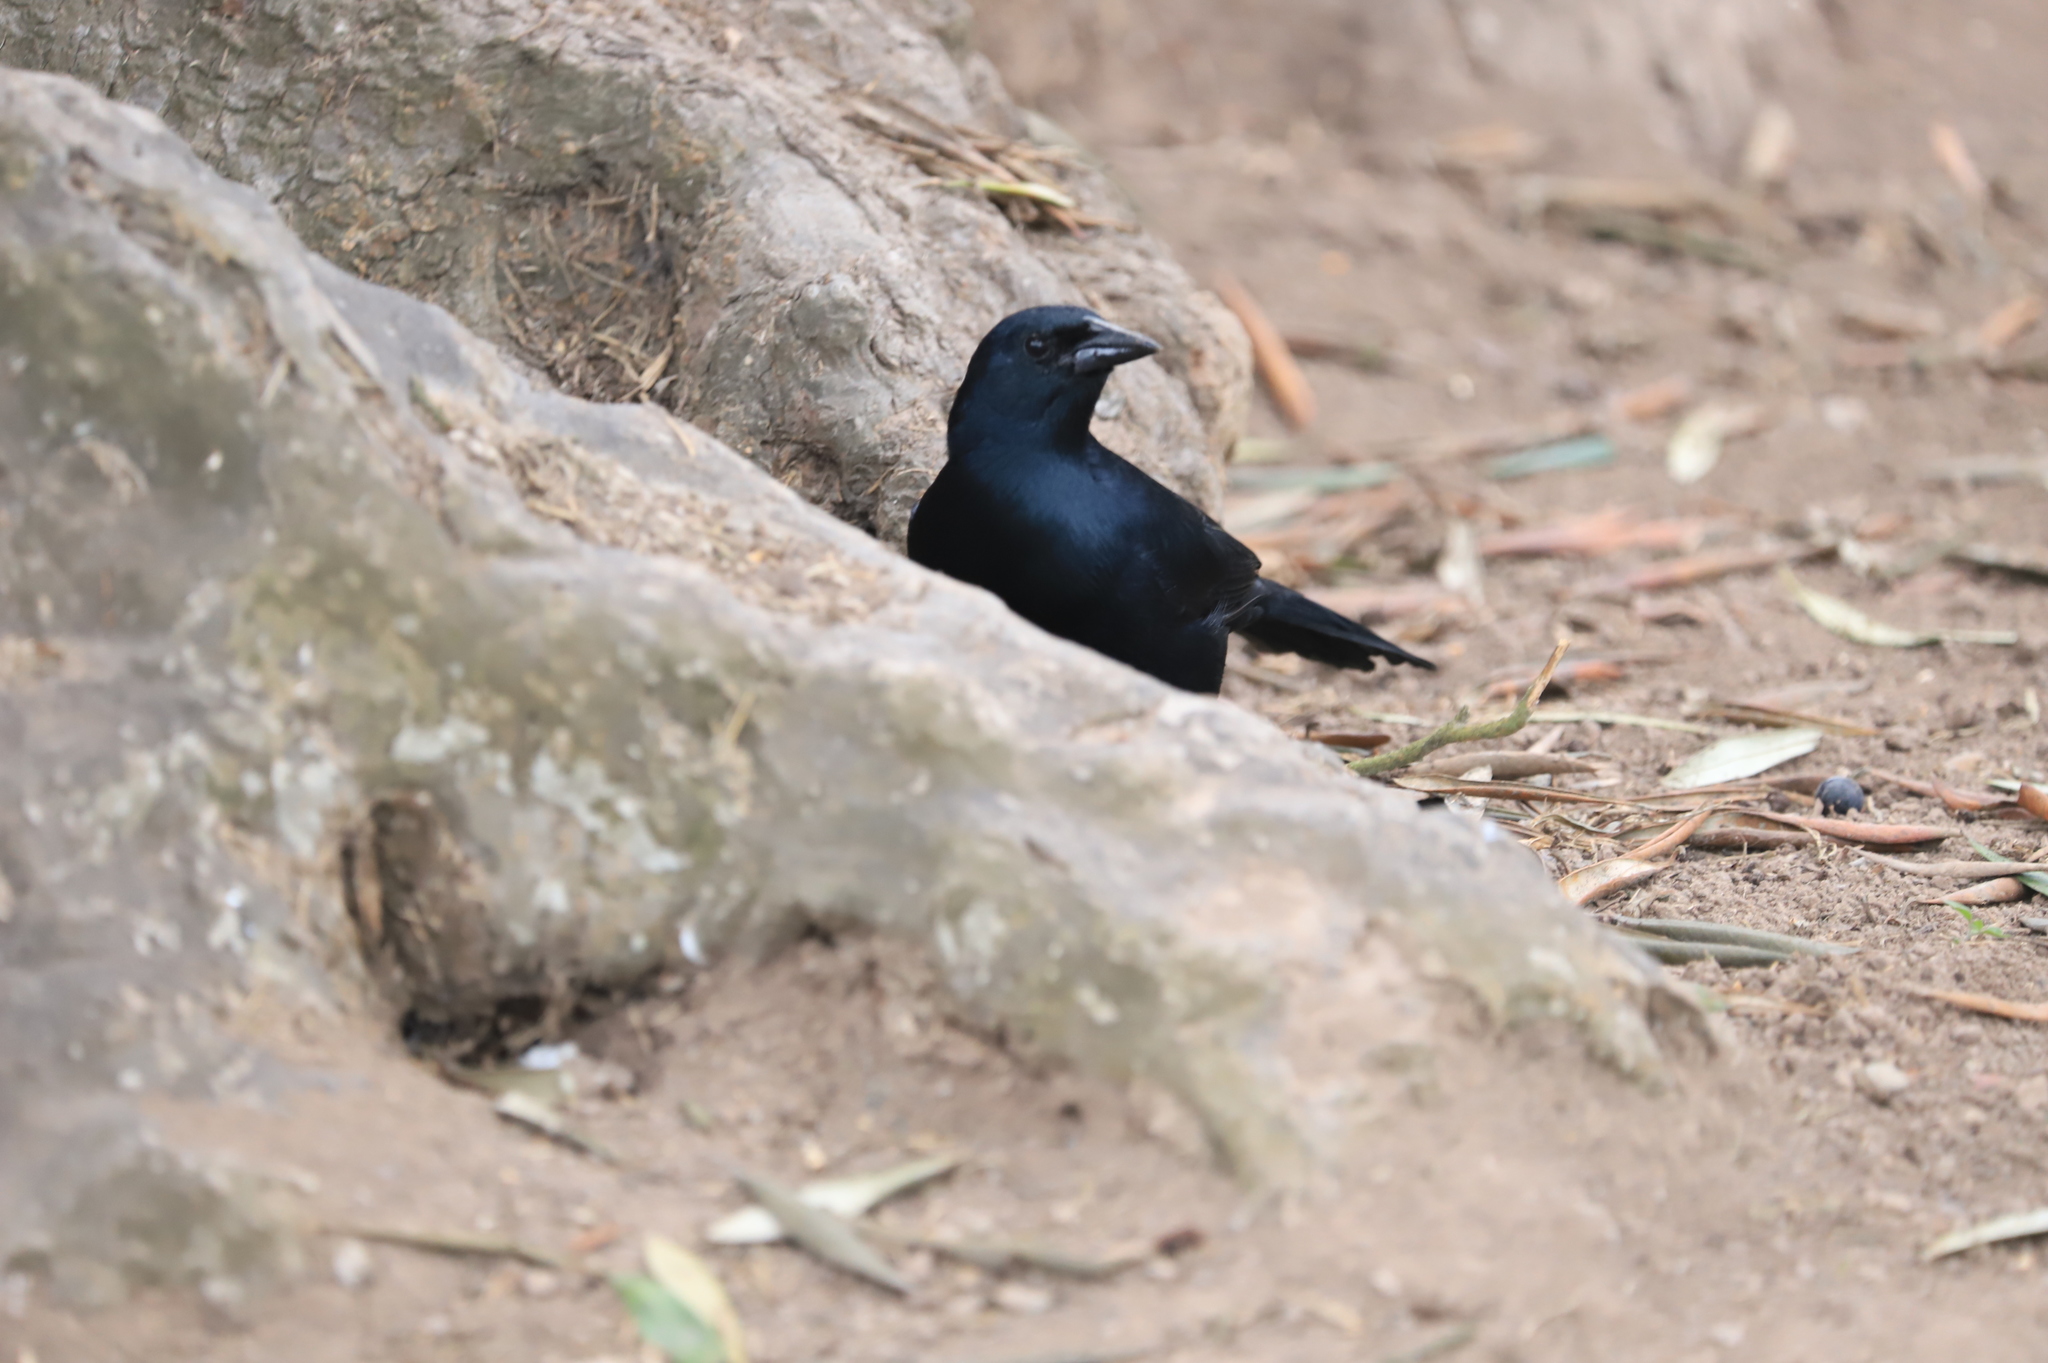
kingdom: Animalia
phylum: Chordata
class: Aves
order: Passeriformes
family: Icteridae
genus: Dives
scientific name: Dives warczewiczi
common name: Scrub blackbird
